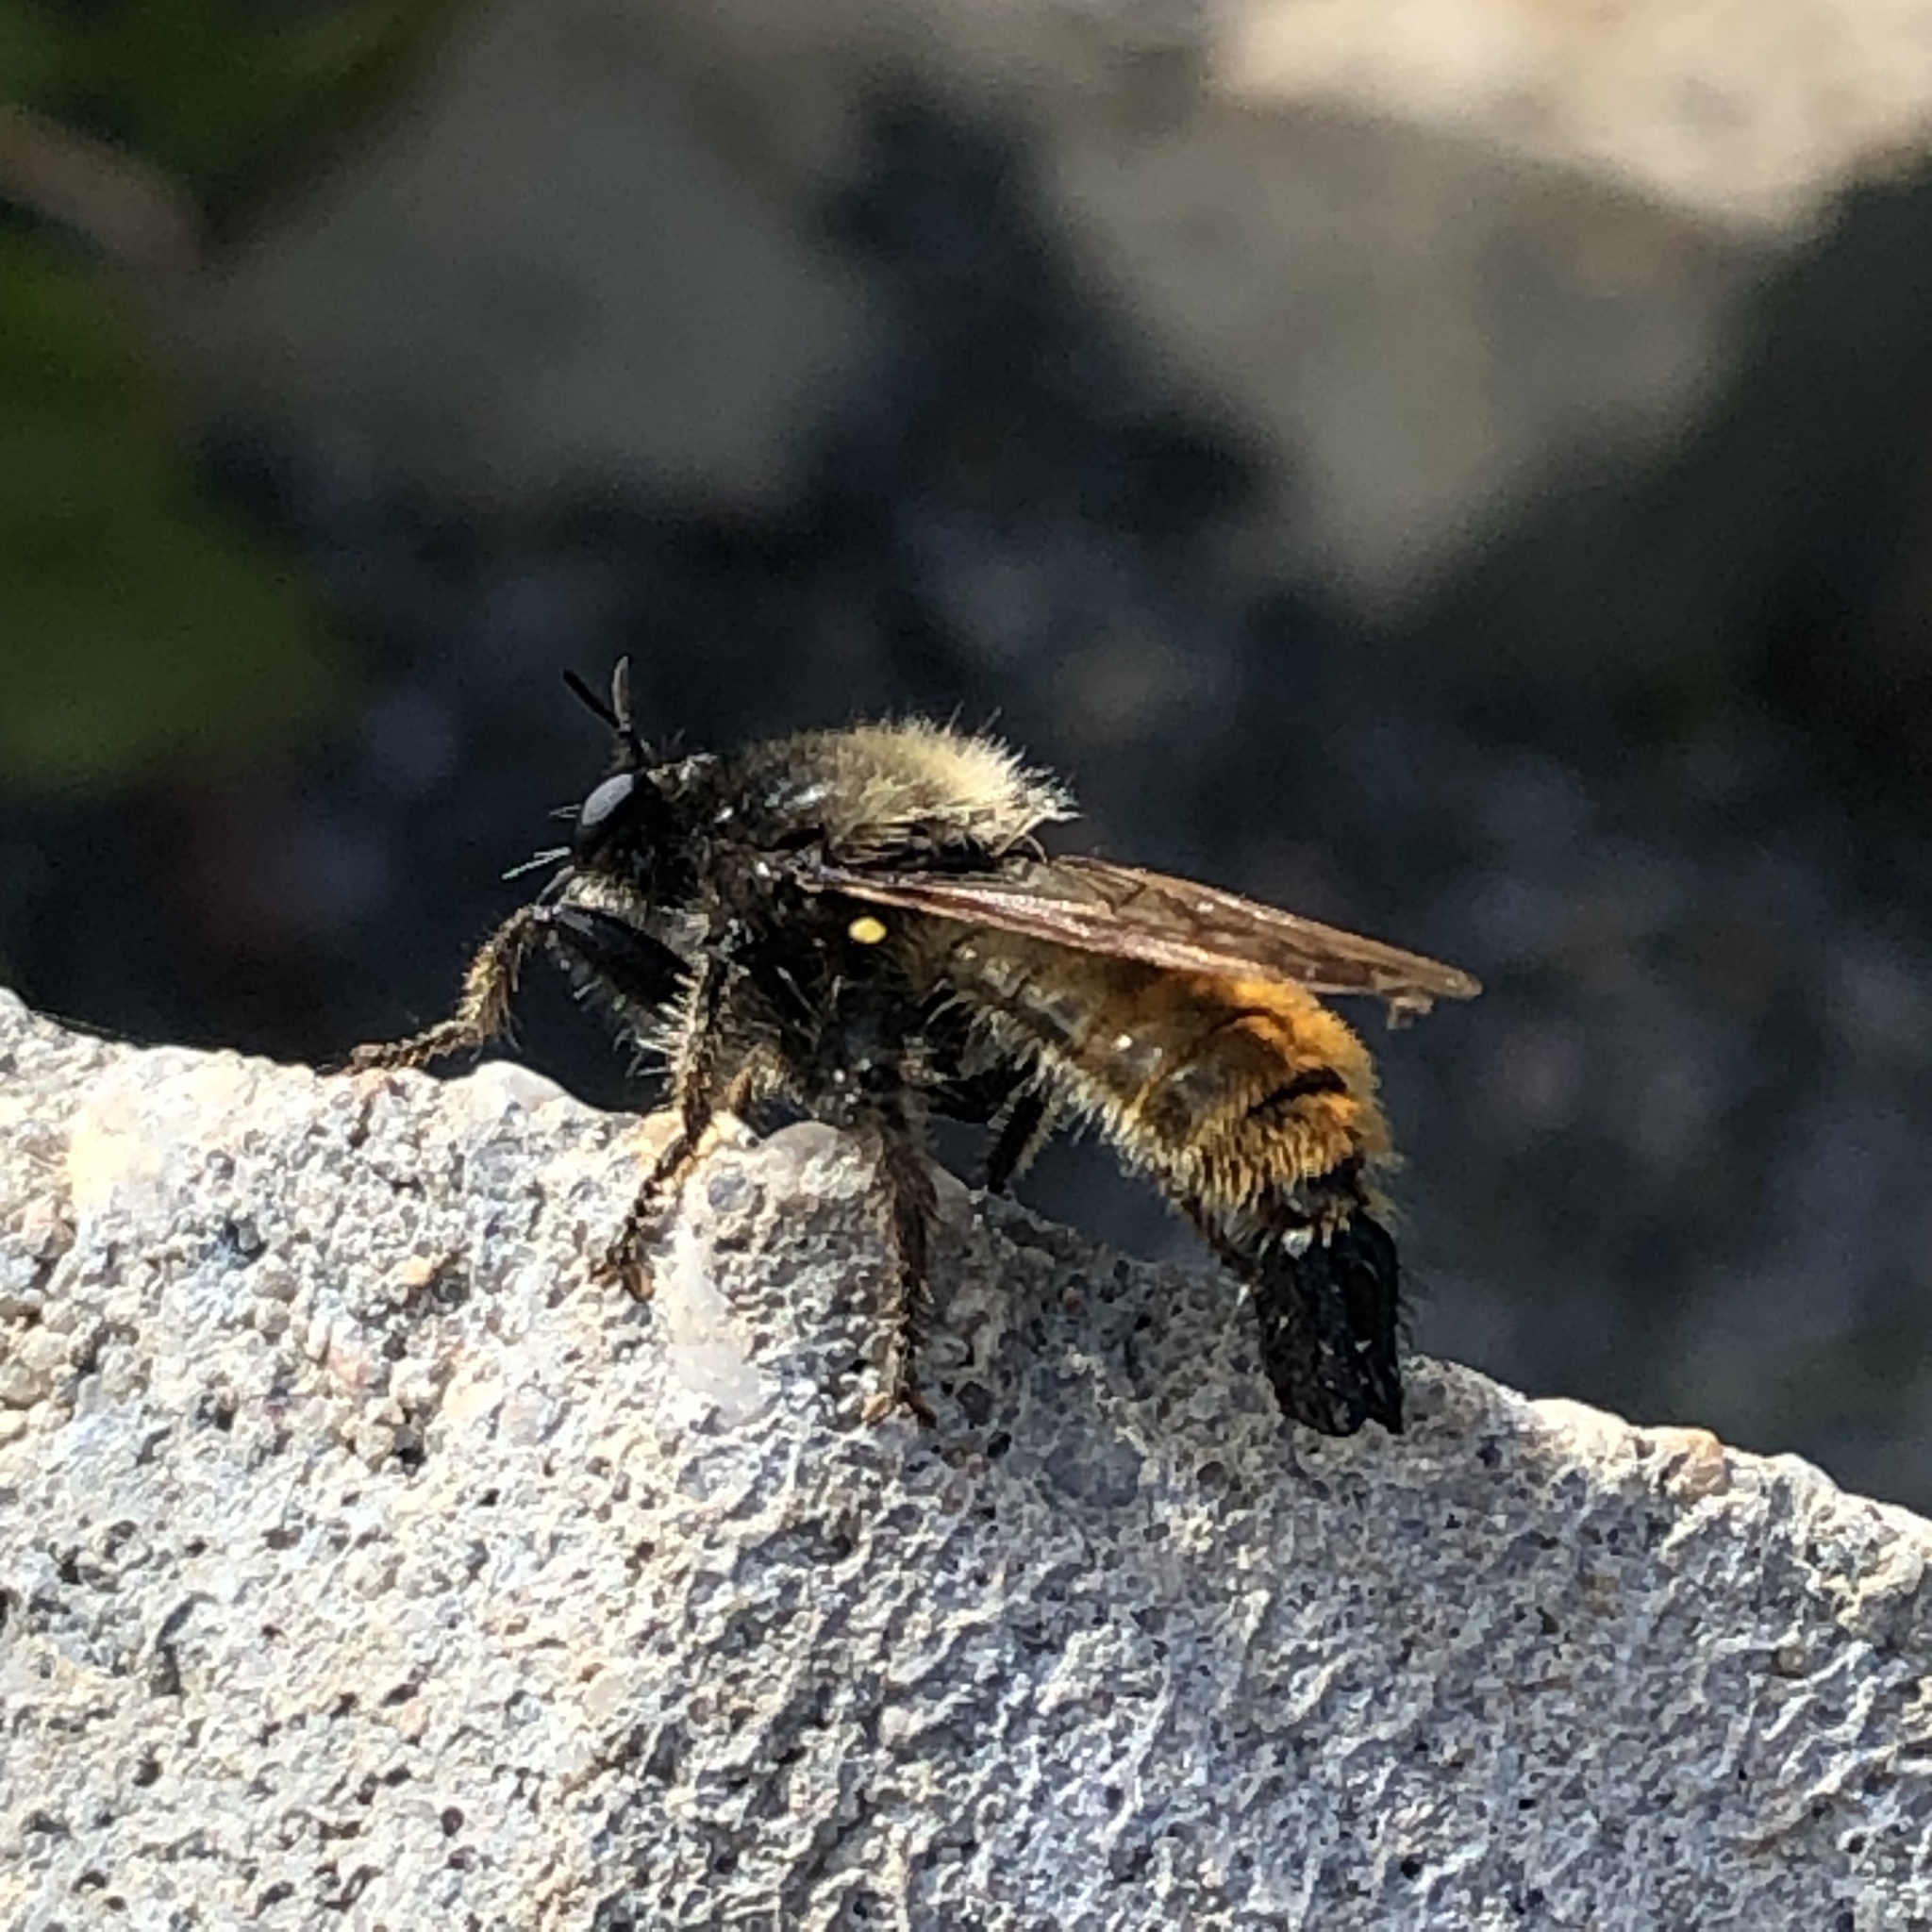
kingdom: Animalia
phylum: Arthropoda
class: Insecta
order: Diptera
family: Asilidae
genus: Laphria
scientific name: Laphria flava
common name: Bumblebee robberfly
